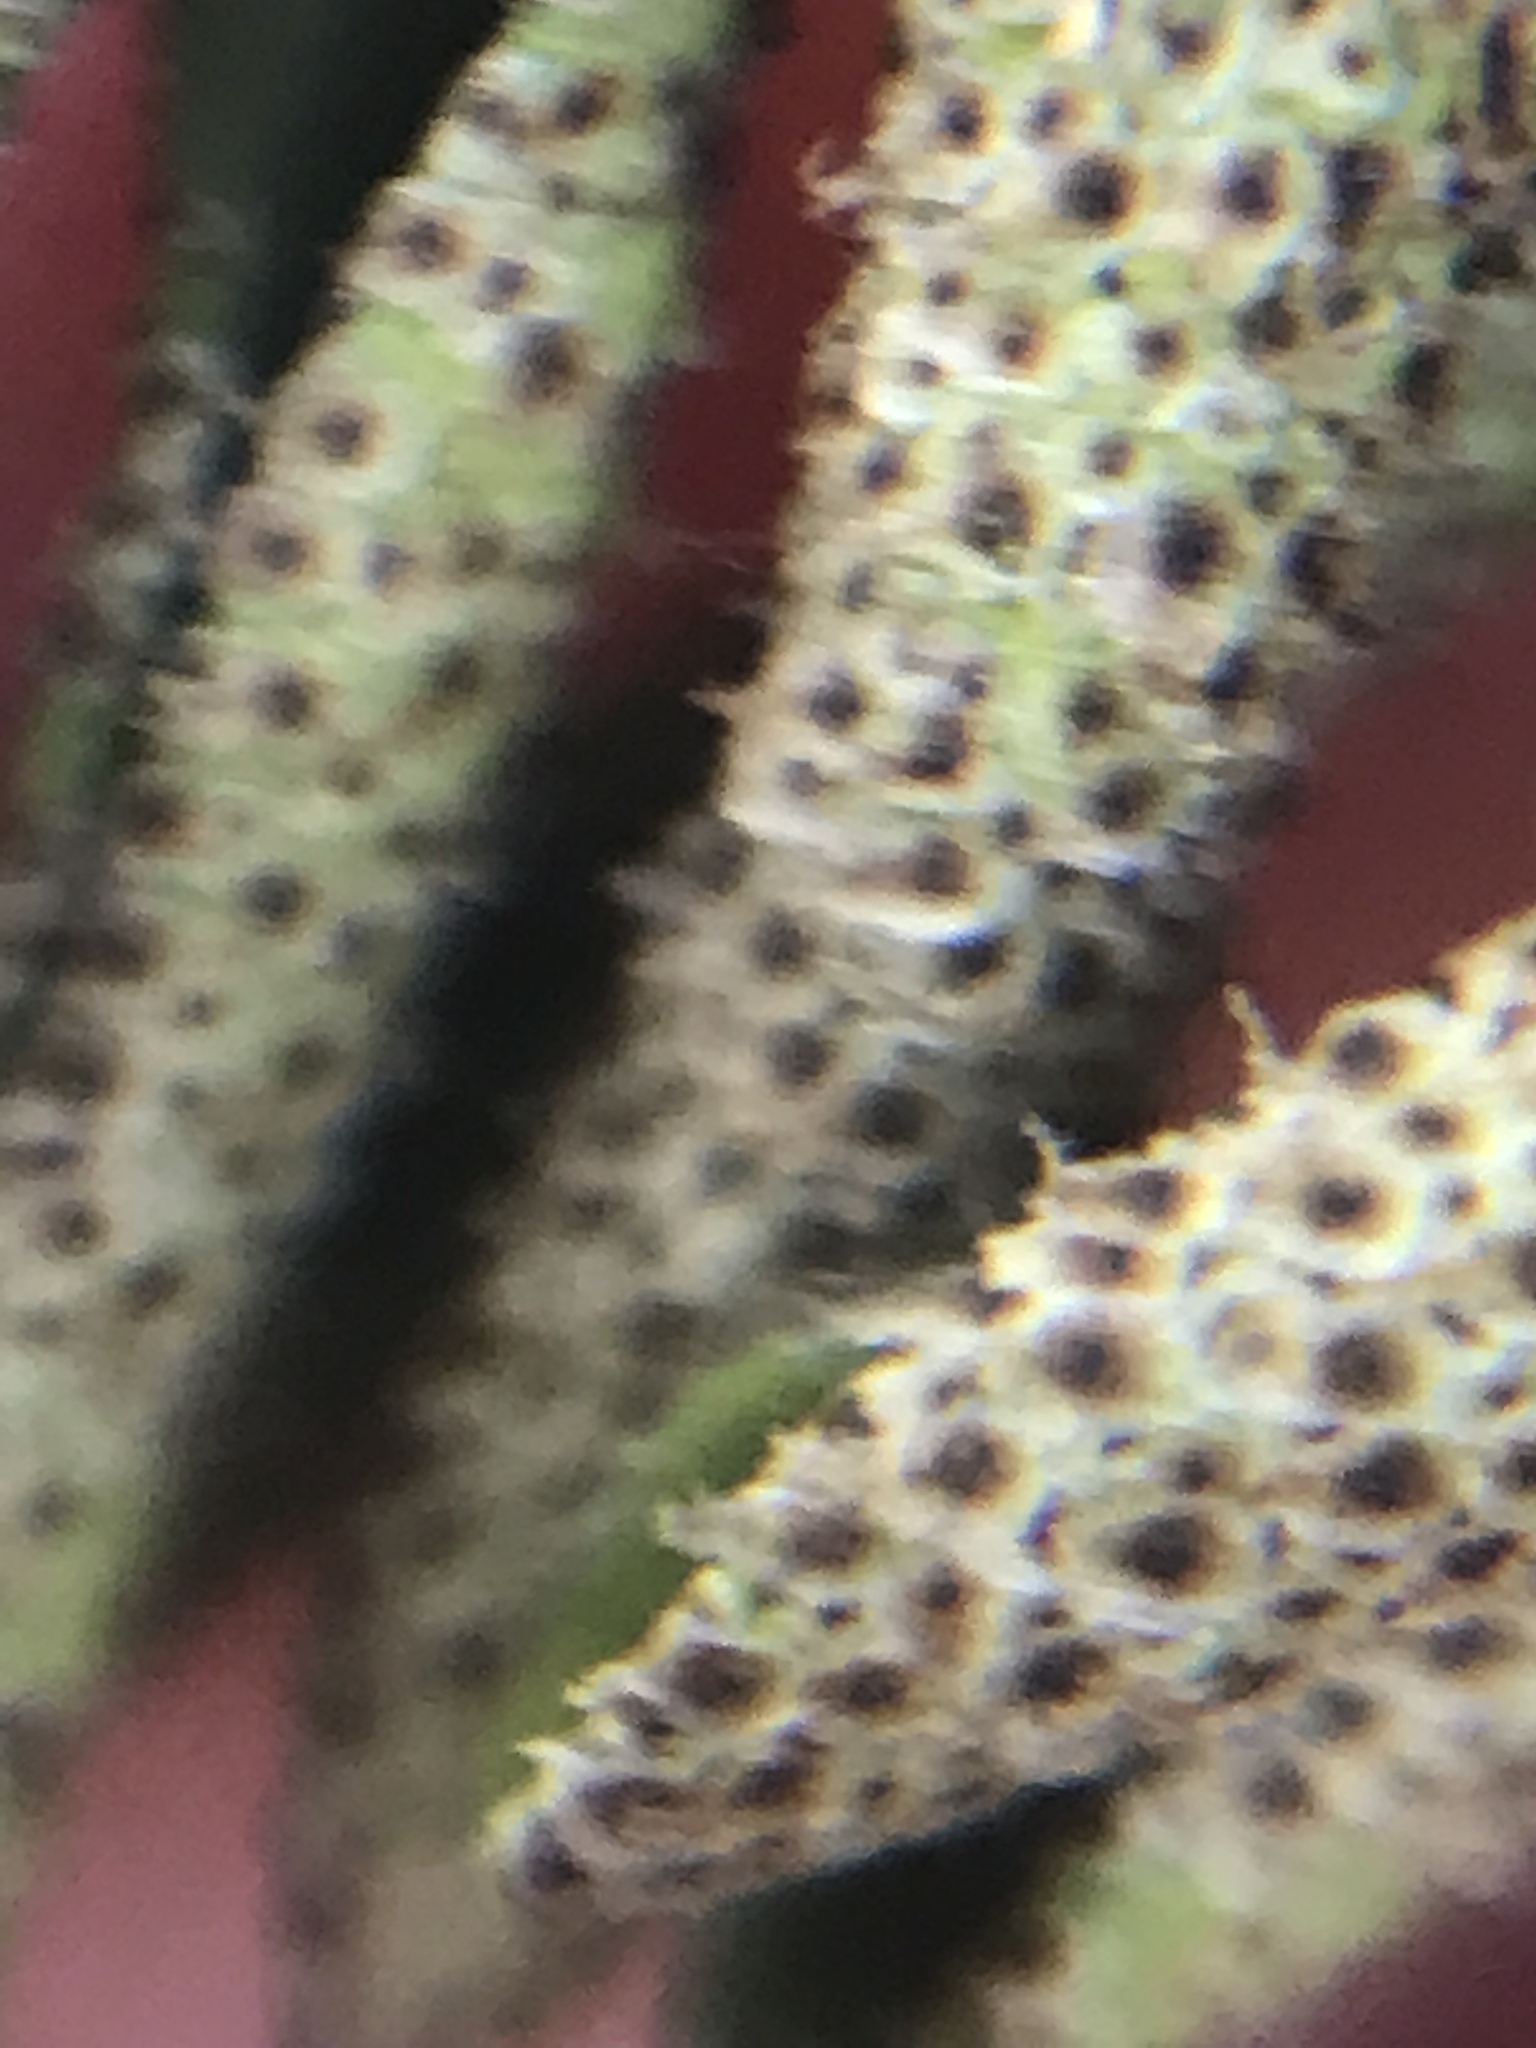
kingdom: Plantae
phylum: Tracheophyta
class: Polypodiopsida
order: Polypodiales
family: Polypodiaceae
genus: Pleopeltis
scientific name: Pleopeltis michauxiana
